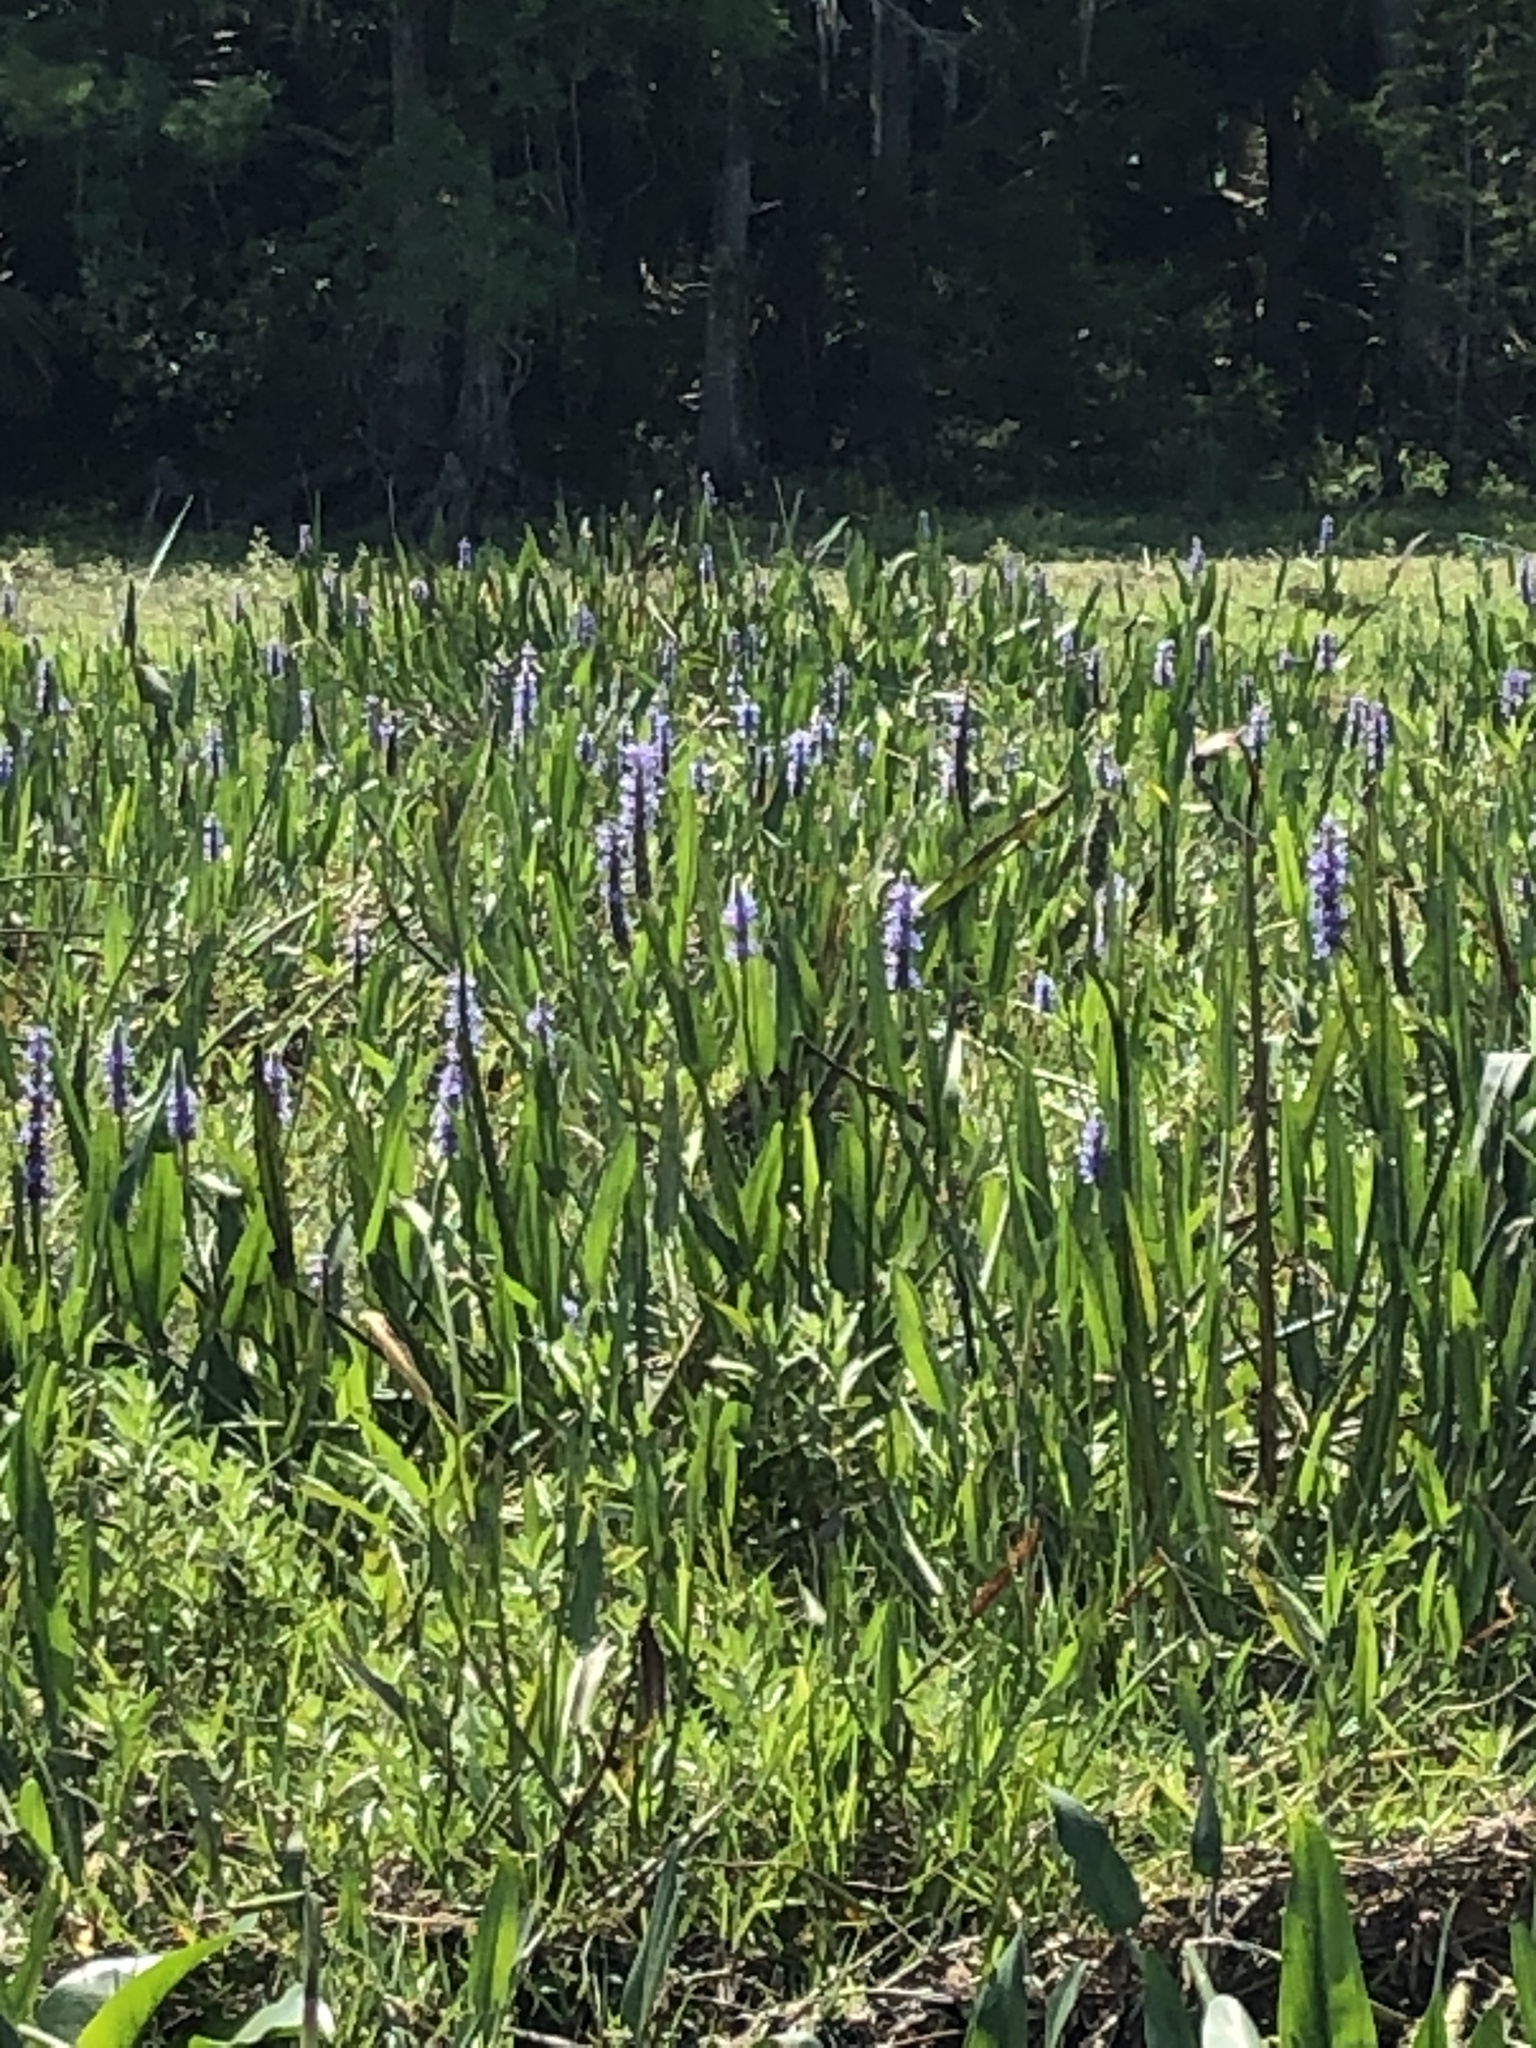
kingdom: Plantae
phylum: Tracheophyta
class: Liliopsida
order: Commelinales
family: Pontederiaceae
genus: Pontederia
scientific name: Pontederia cordata
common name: Pickerelweed
